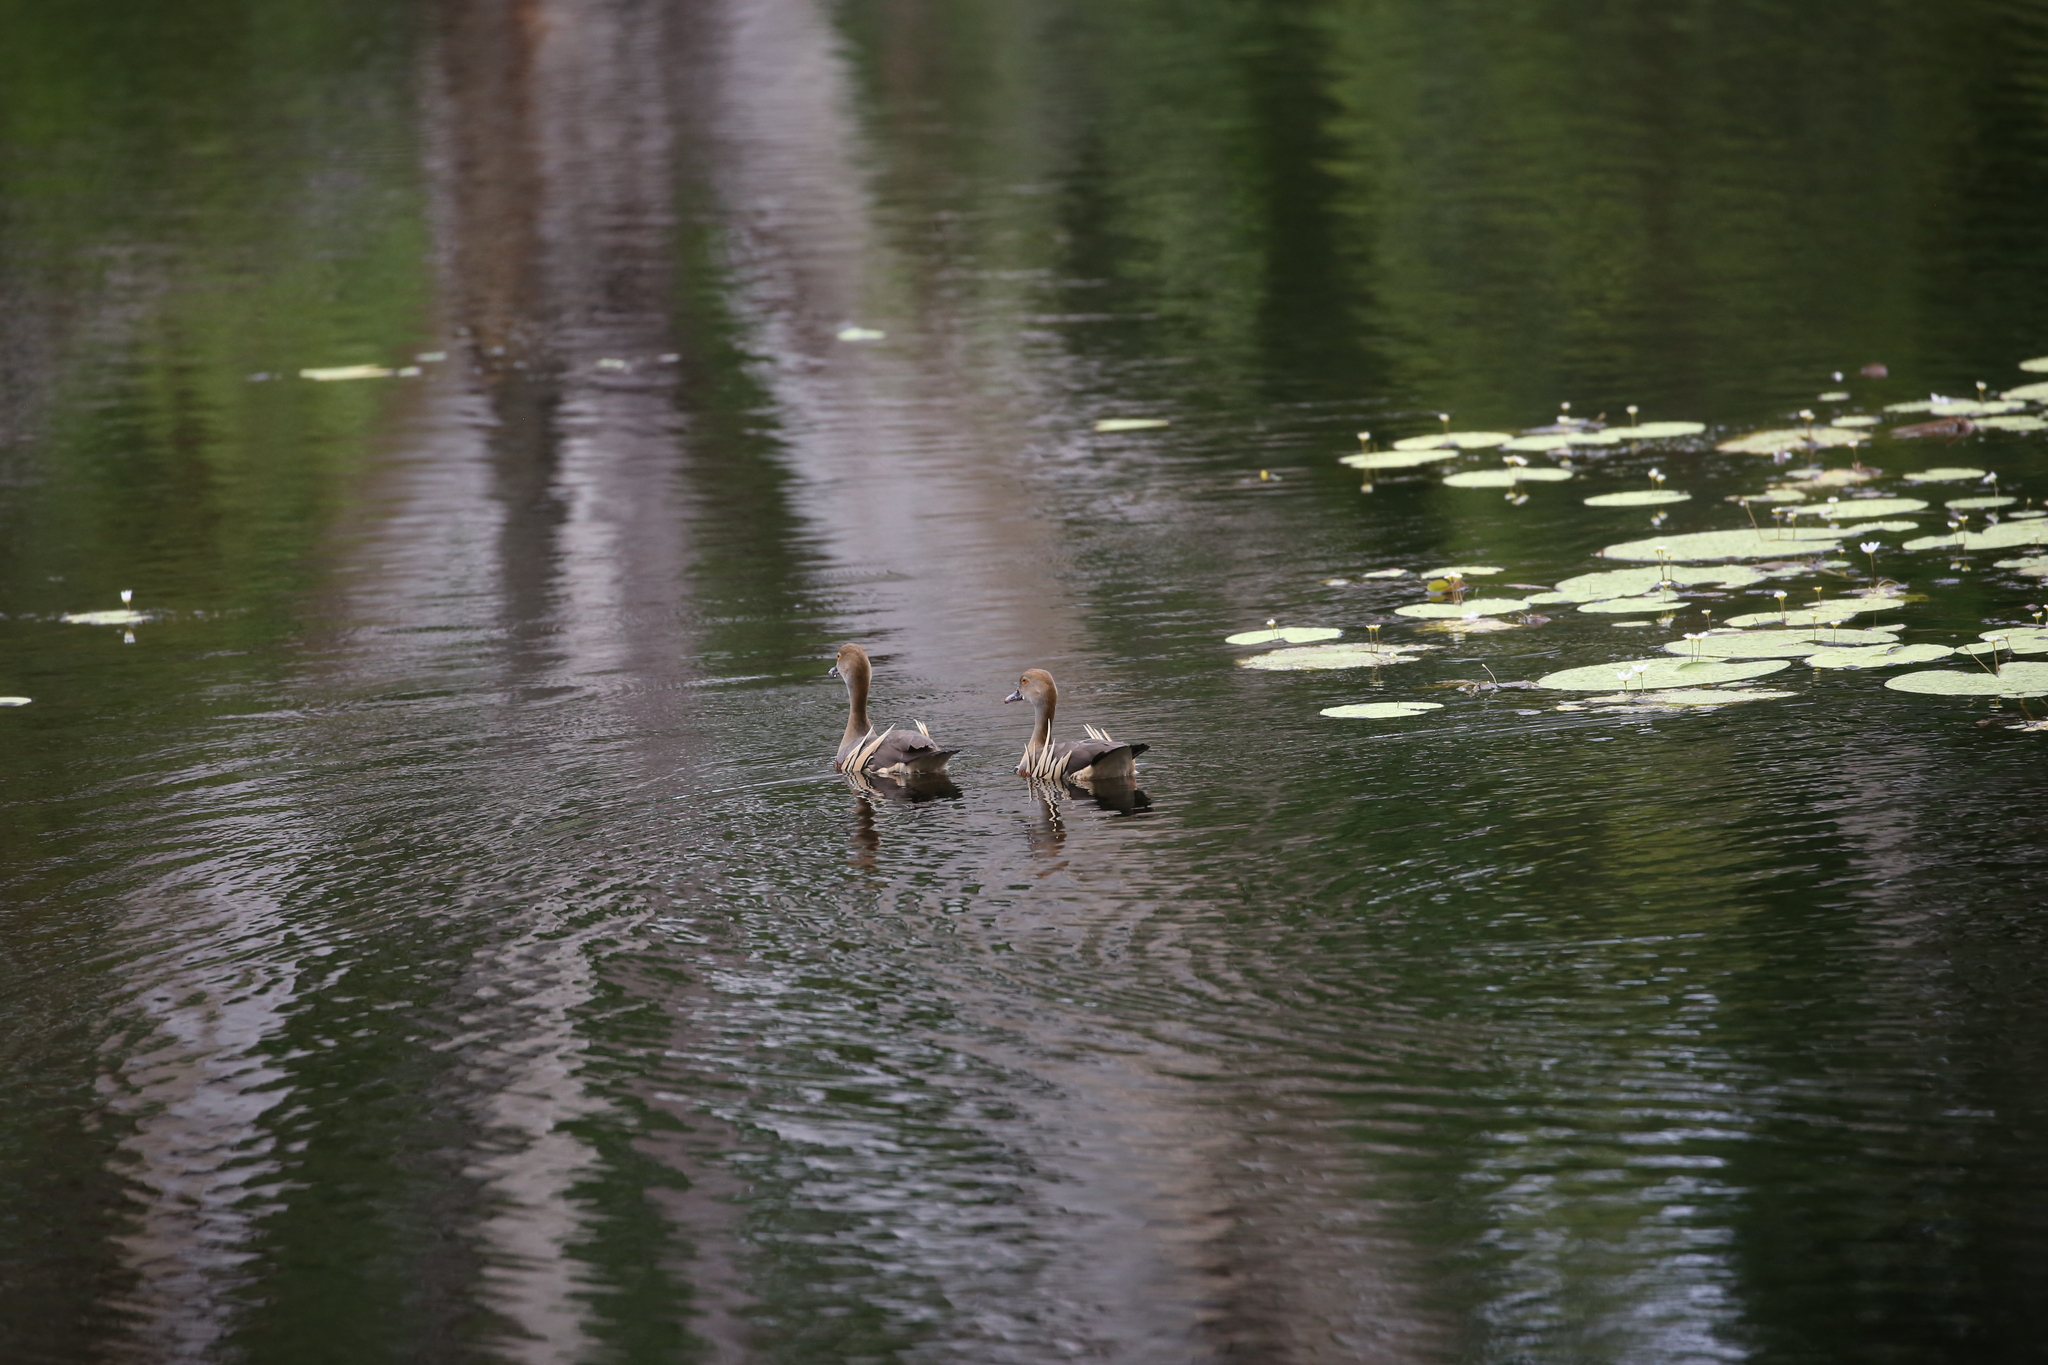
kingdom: Animalia
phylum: Chordata
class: Aves
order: Anseriformes
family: Anatidae
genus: Dendrocygna
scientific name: Dendrocygna eytoni
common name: Plumed whistling-duck
